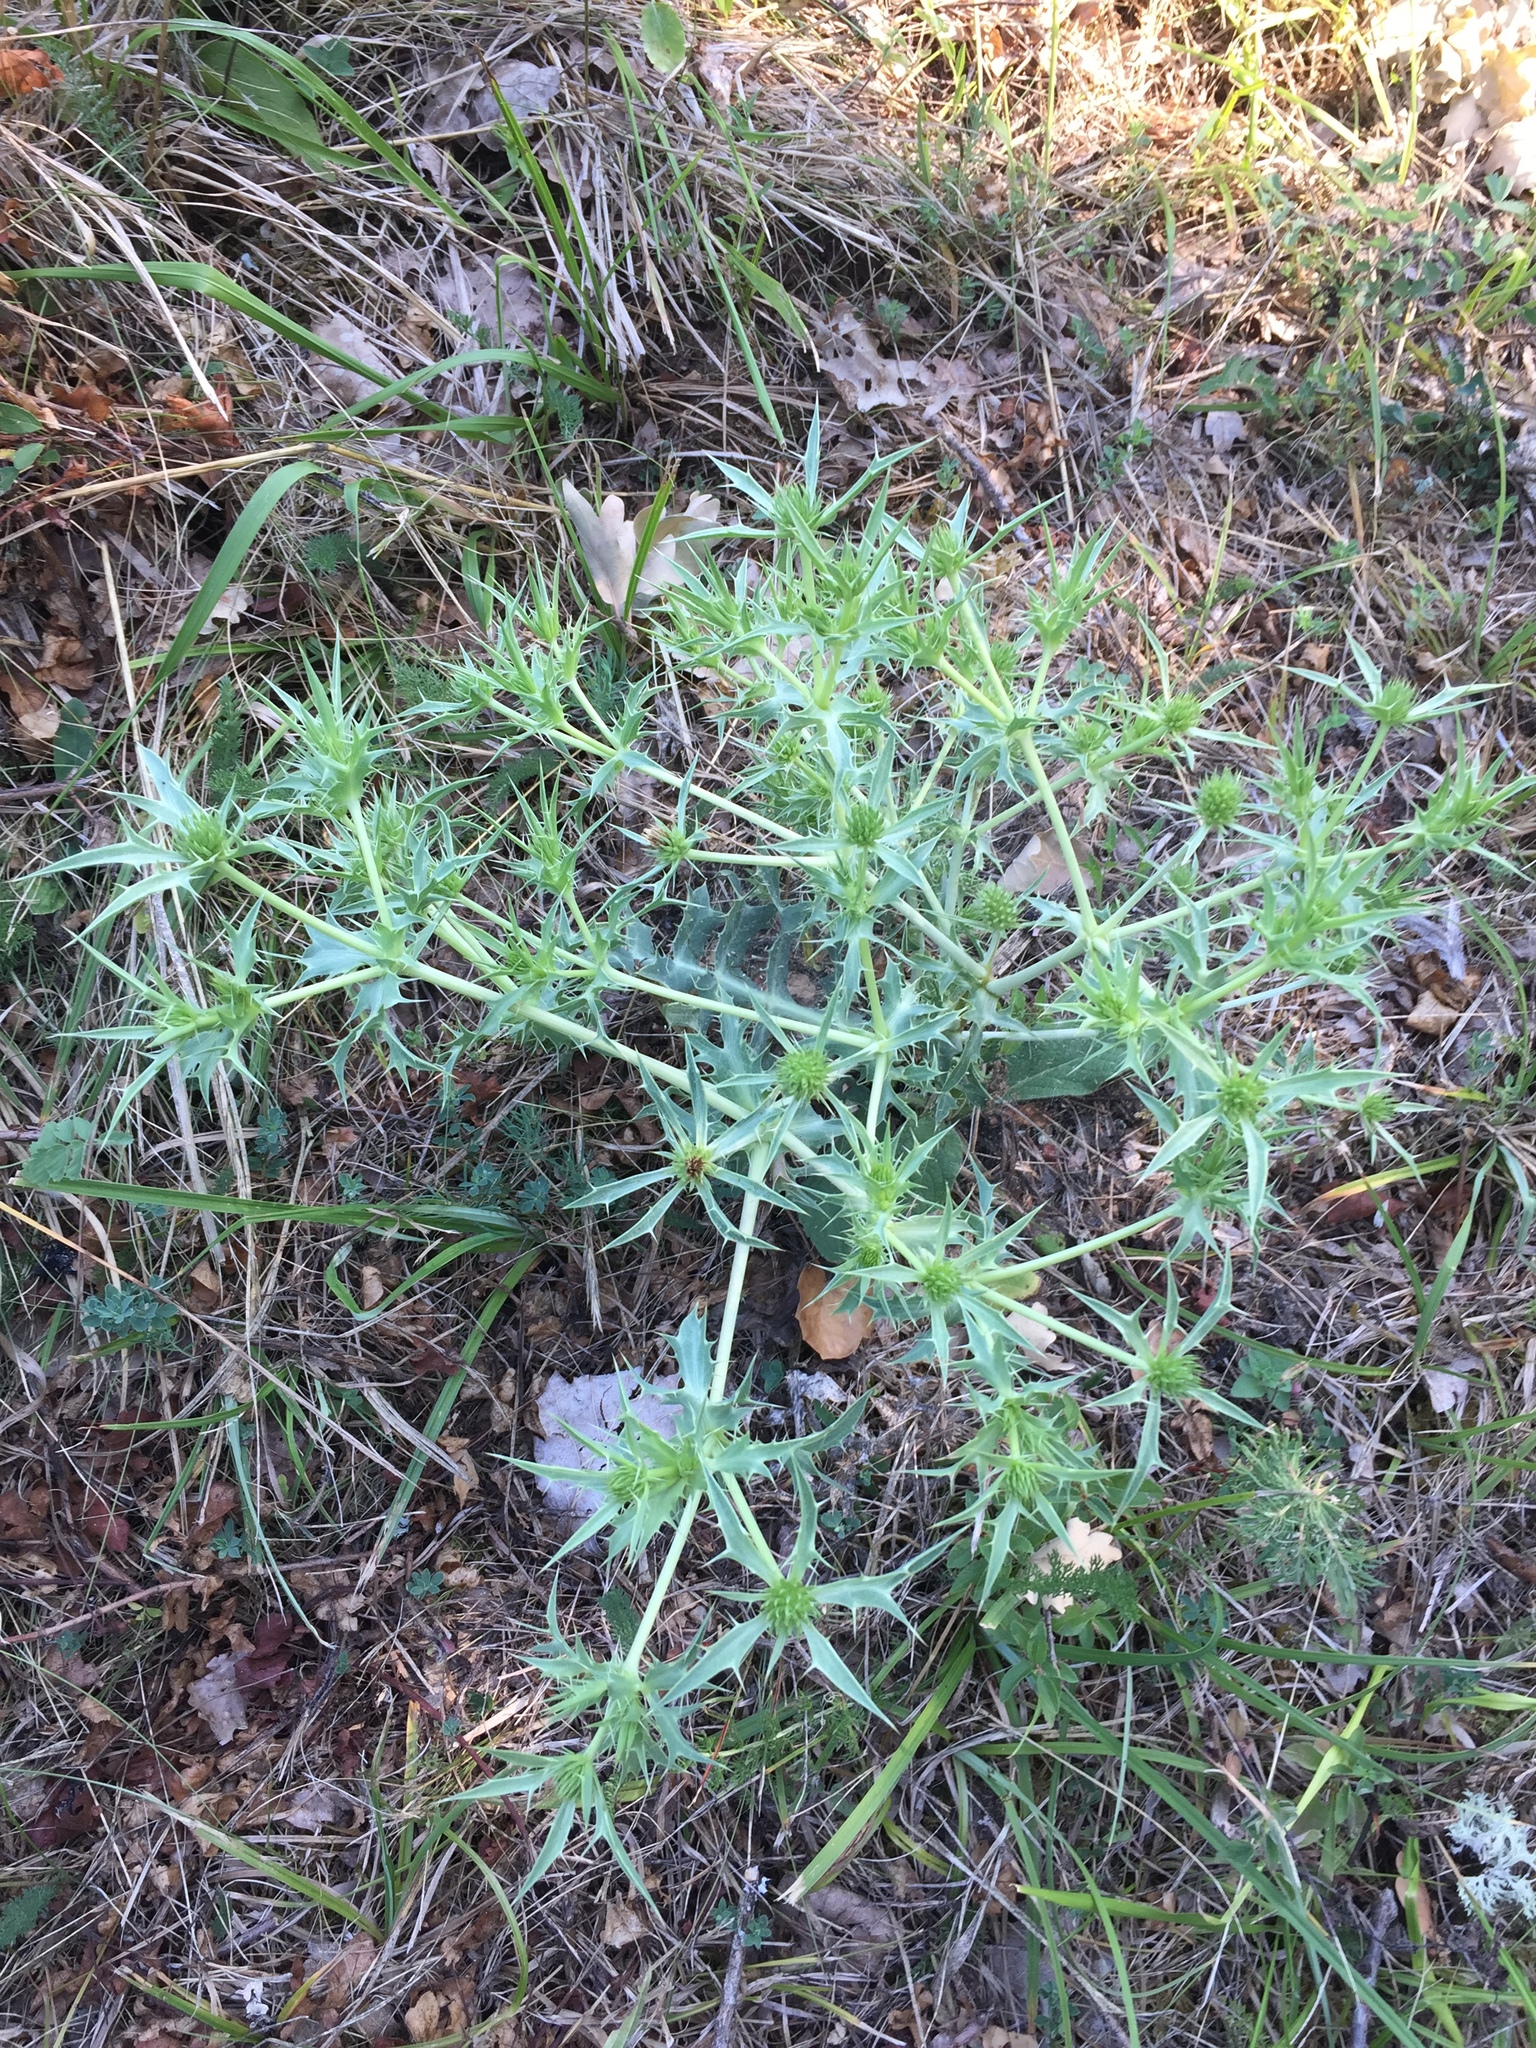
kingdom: Plantae
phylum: Tracheophyta
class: Magnoliopsida
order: Apiales
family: Apiaceae
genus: Eryngium
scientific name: Eryngium campestre
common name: Field eryngo
